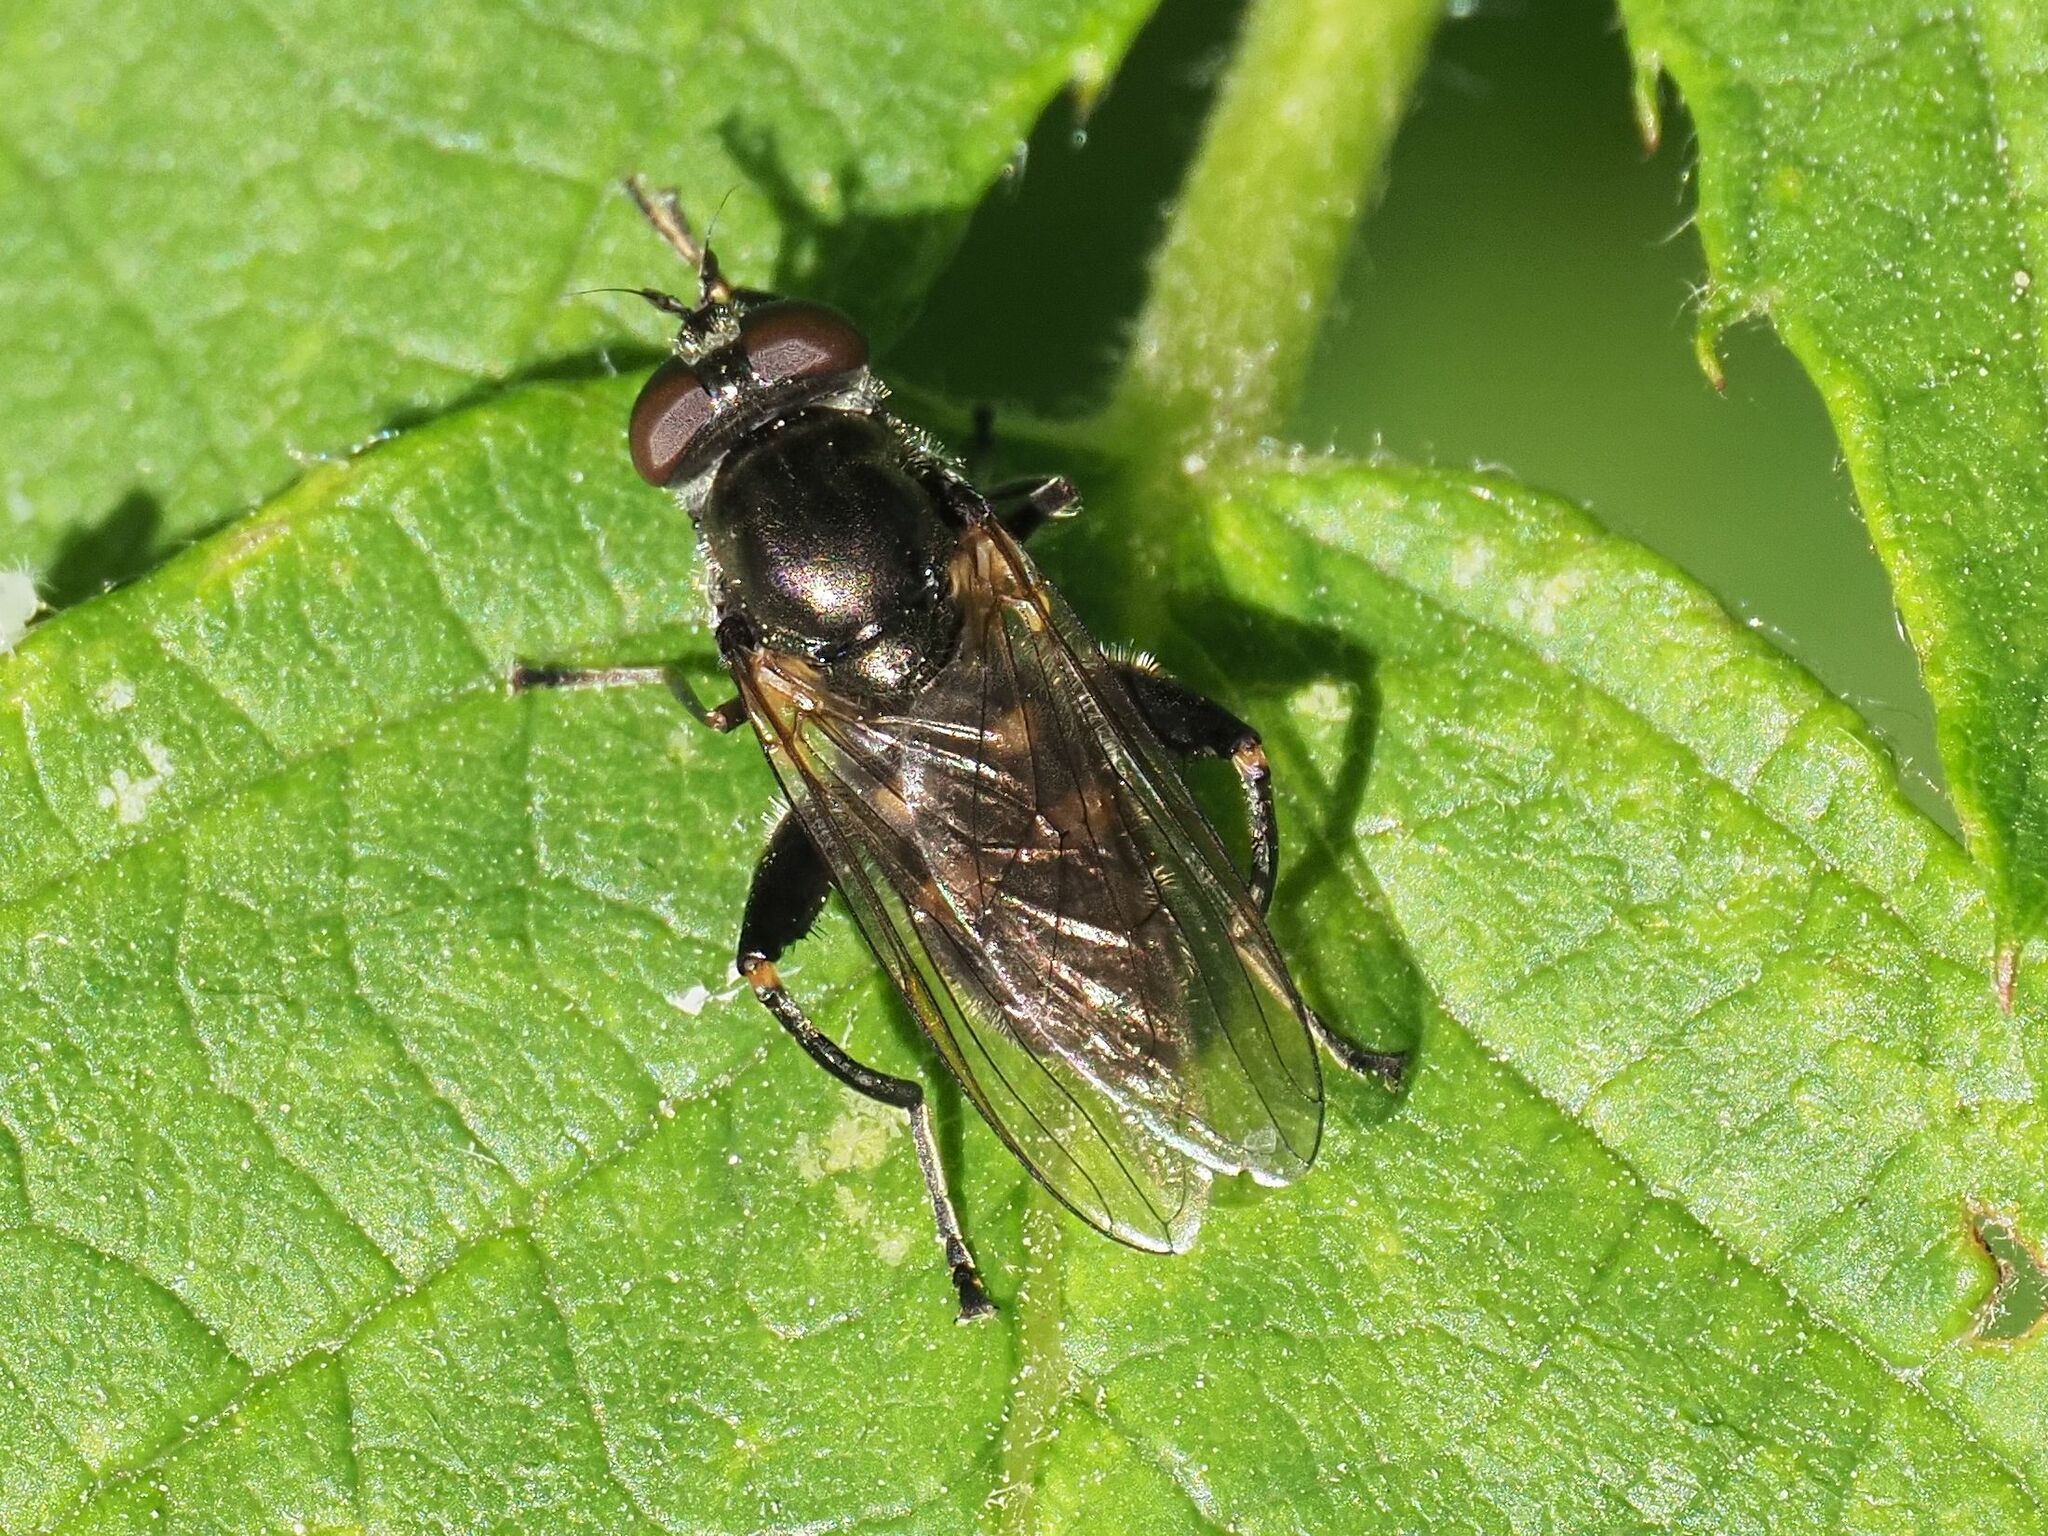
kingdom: Animalia
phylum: Arthropoda
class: Insecta
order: Diptera
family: Syrphidae
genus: Chalcosyrphus
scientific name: Chalcosyrphus nemorum
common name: Dusky-banded forest fly
